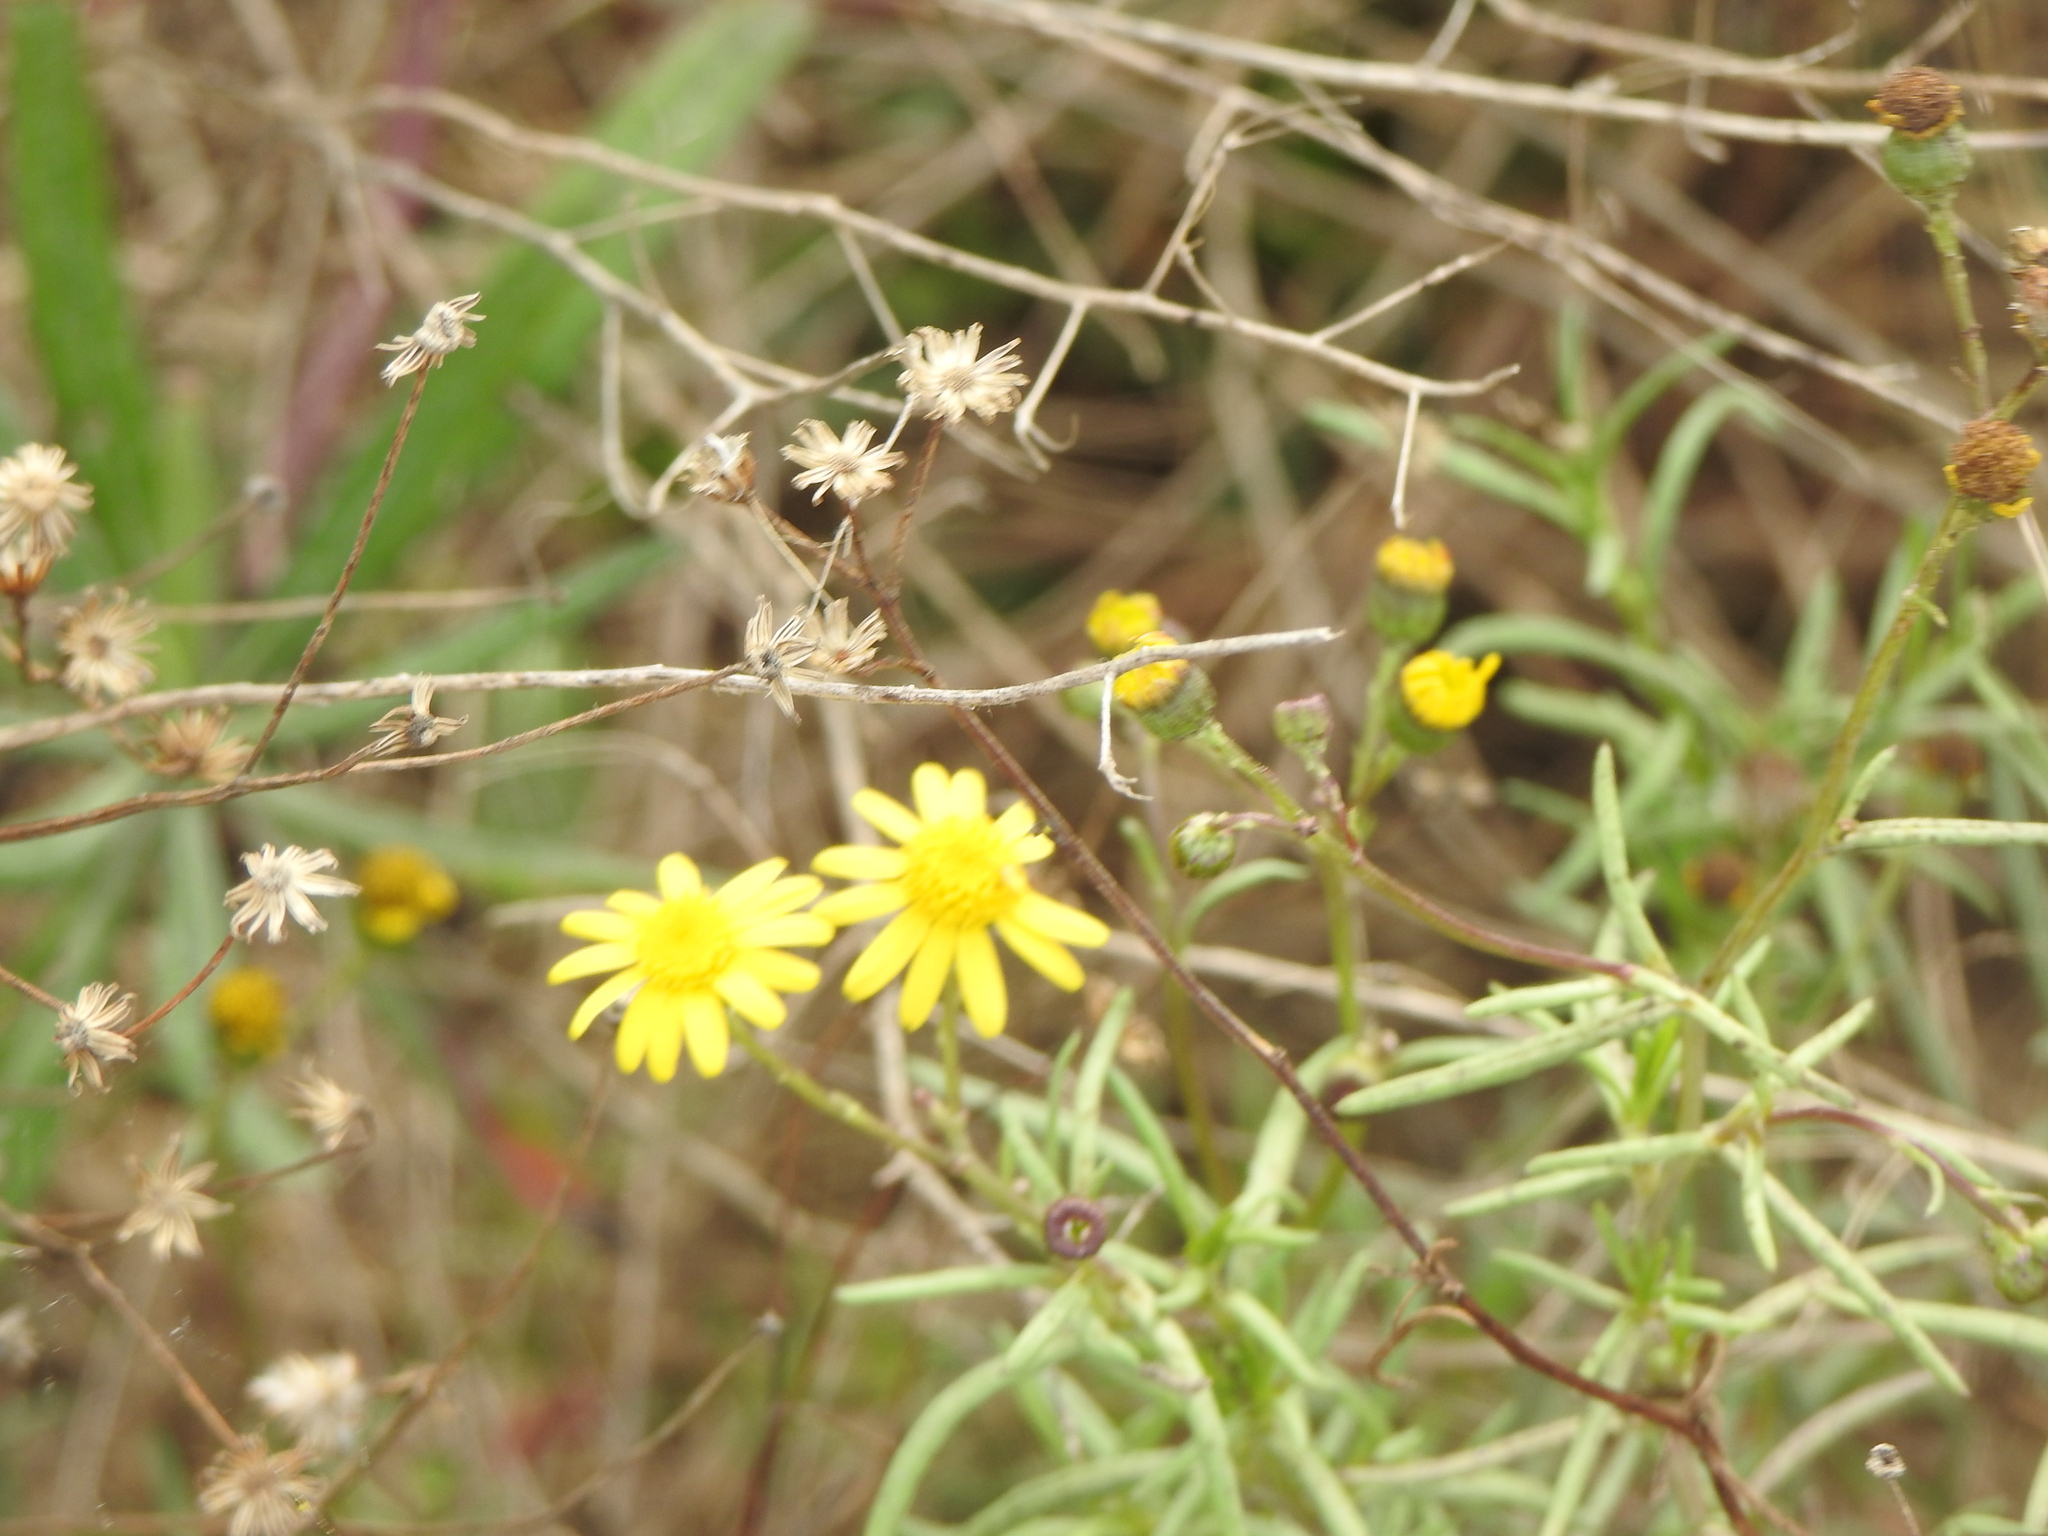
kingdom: Plantae
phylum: Tracheophyta
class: Magnoliopsida
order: Asterales
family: Asteraceae
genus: Senecio
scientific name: Senecio madagascariensis
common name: Madagascar ragwort
